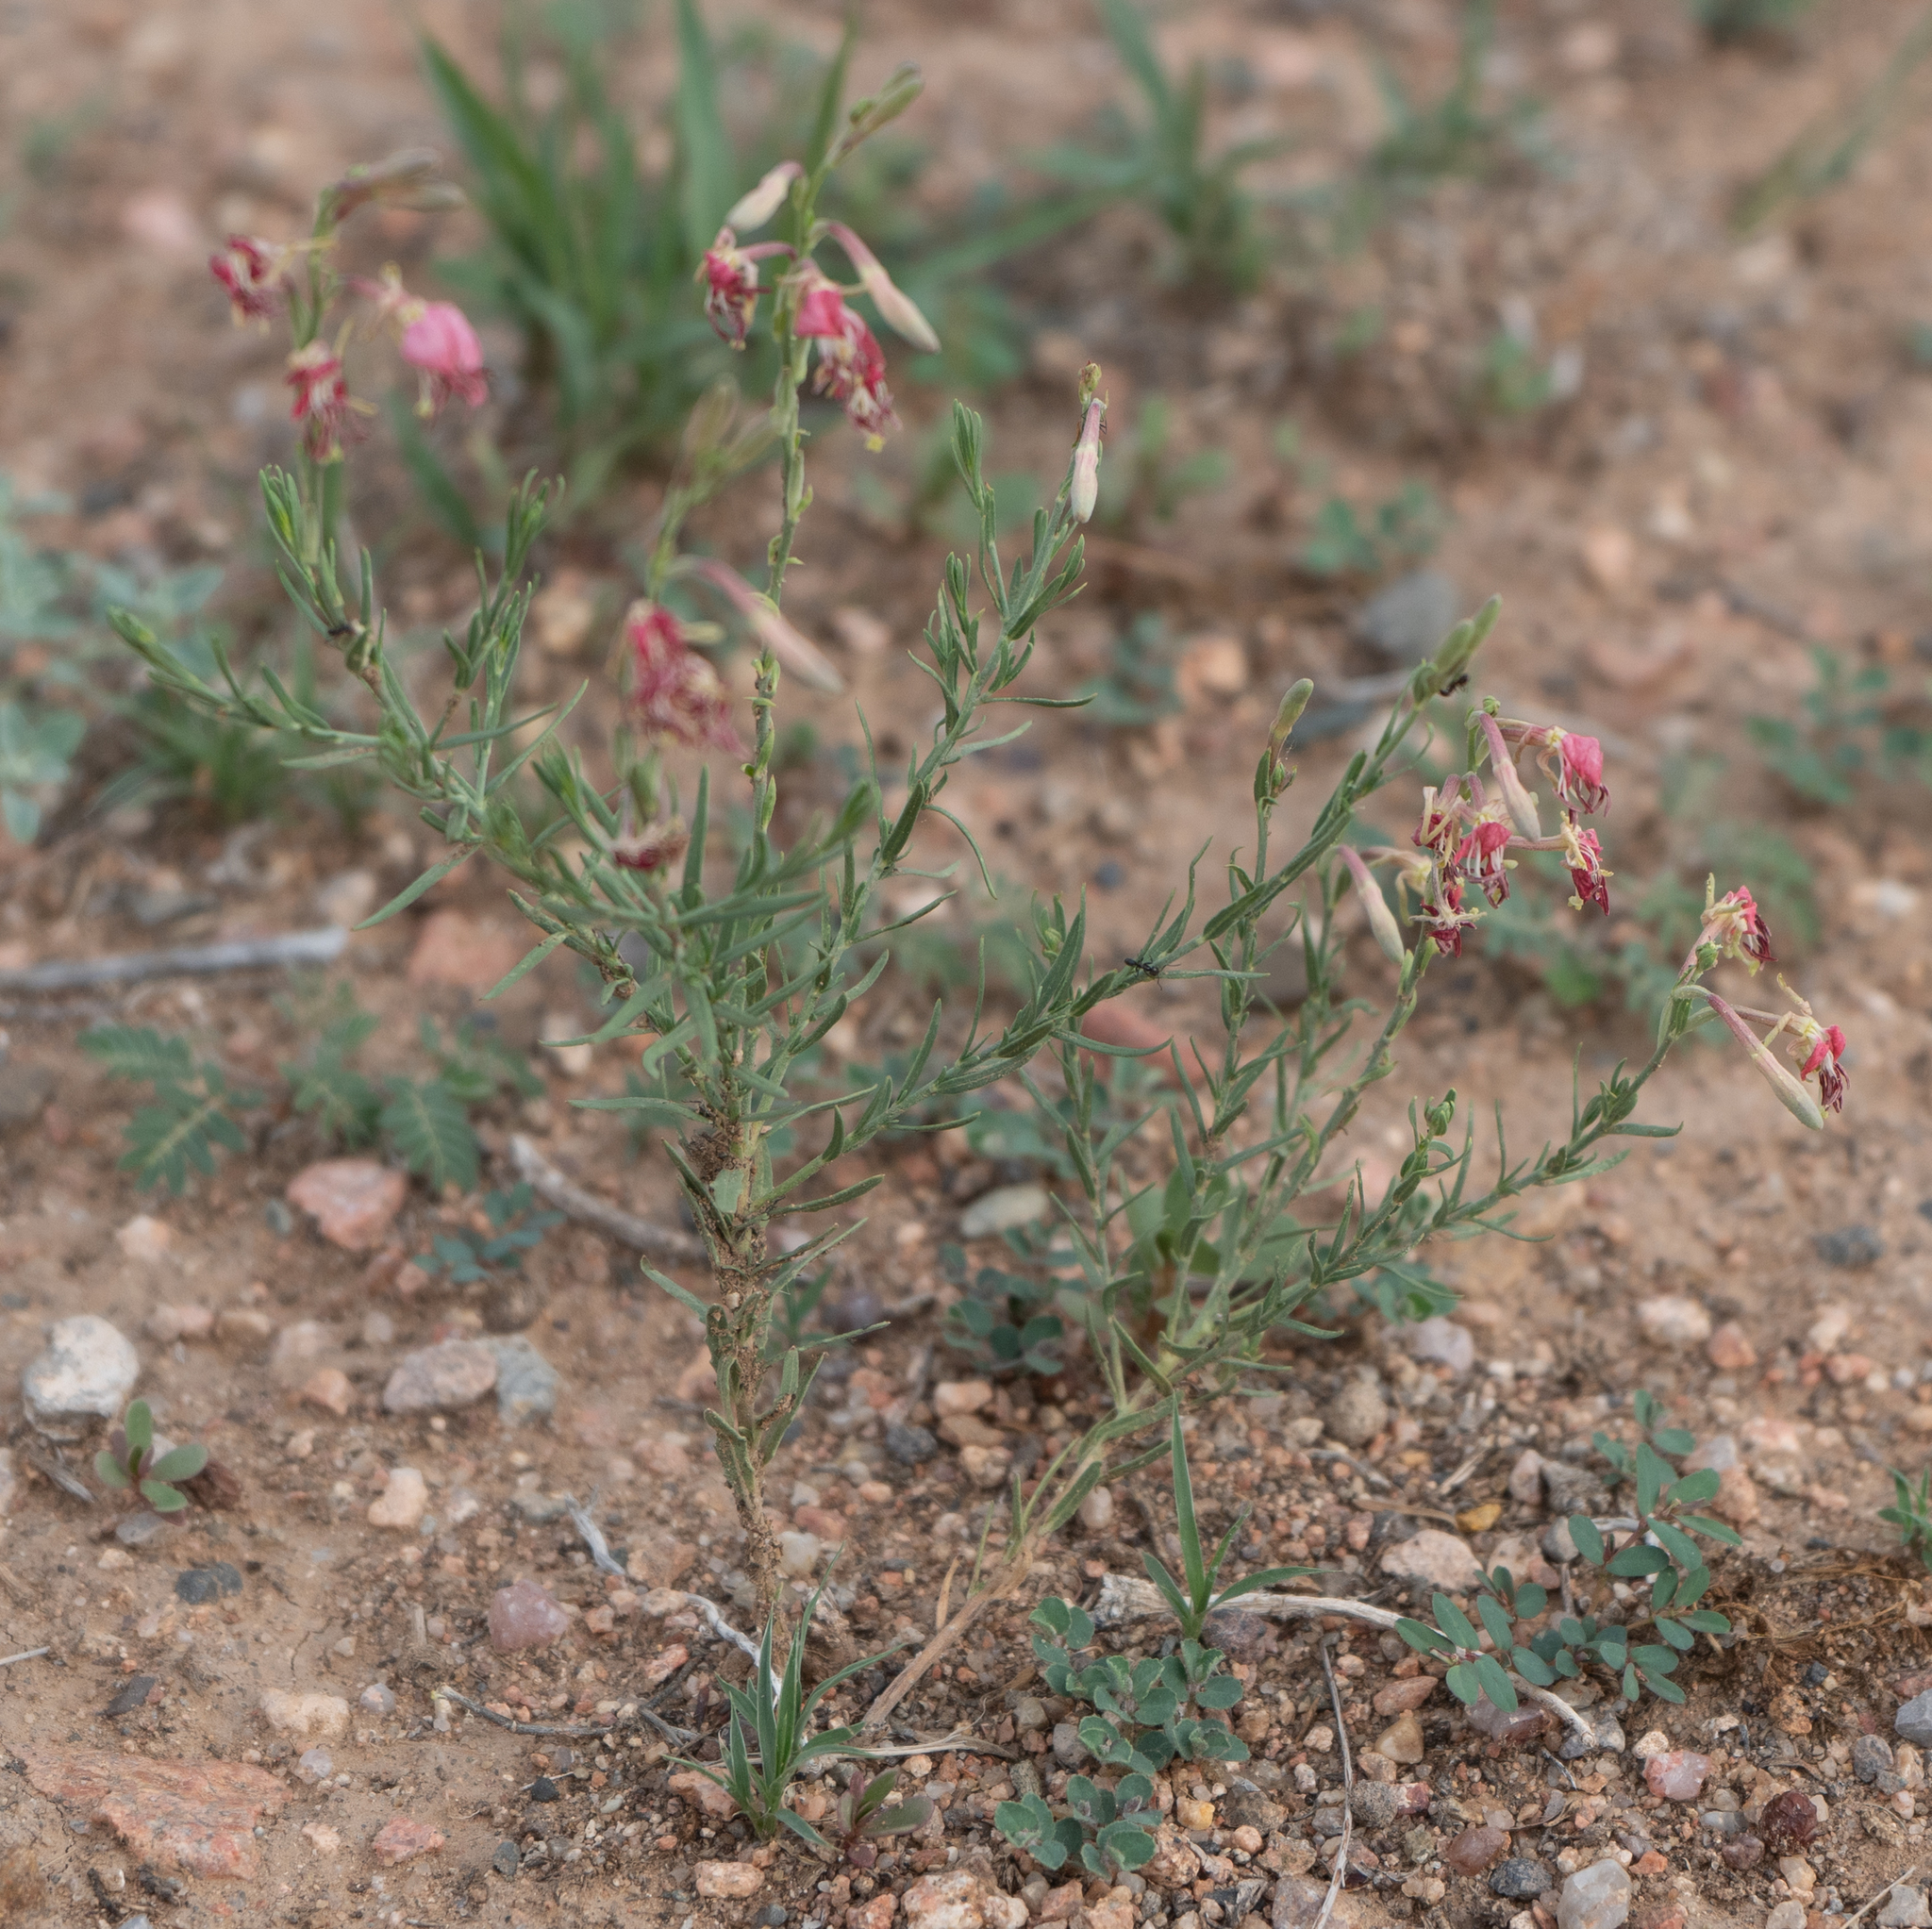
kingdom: Plantae
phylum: Tracheophyta
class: Magnoliopsida
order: Myrtales
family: Onagraceae
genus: Oenothera
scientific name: Oenothera suffrutescens
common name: Scarlet beeblossom
